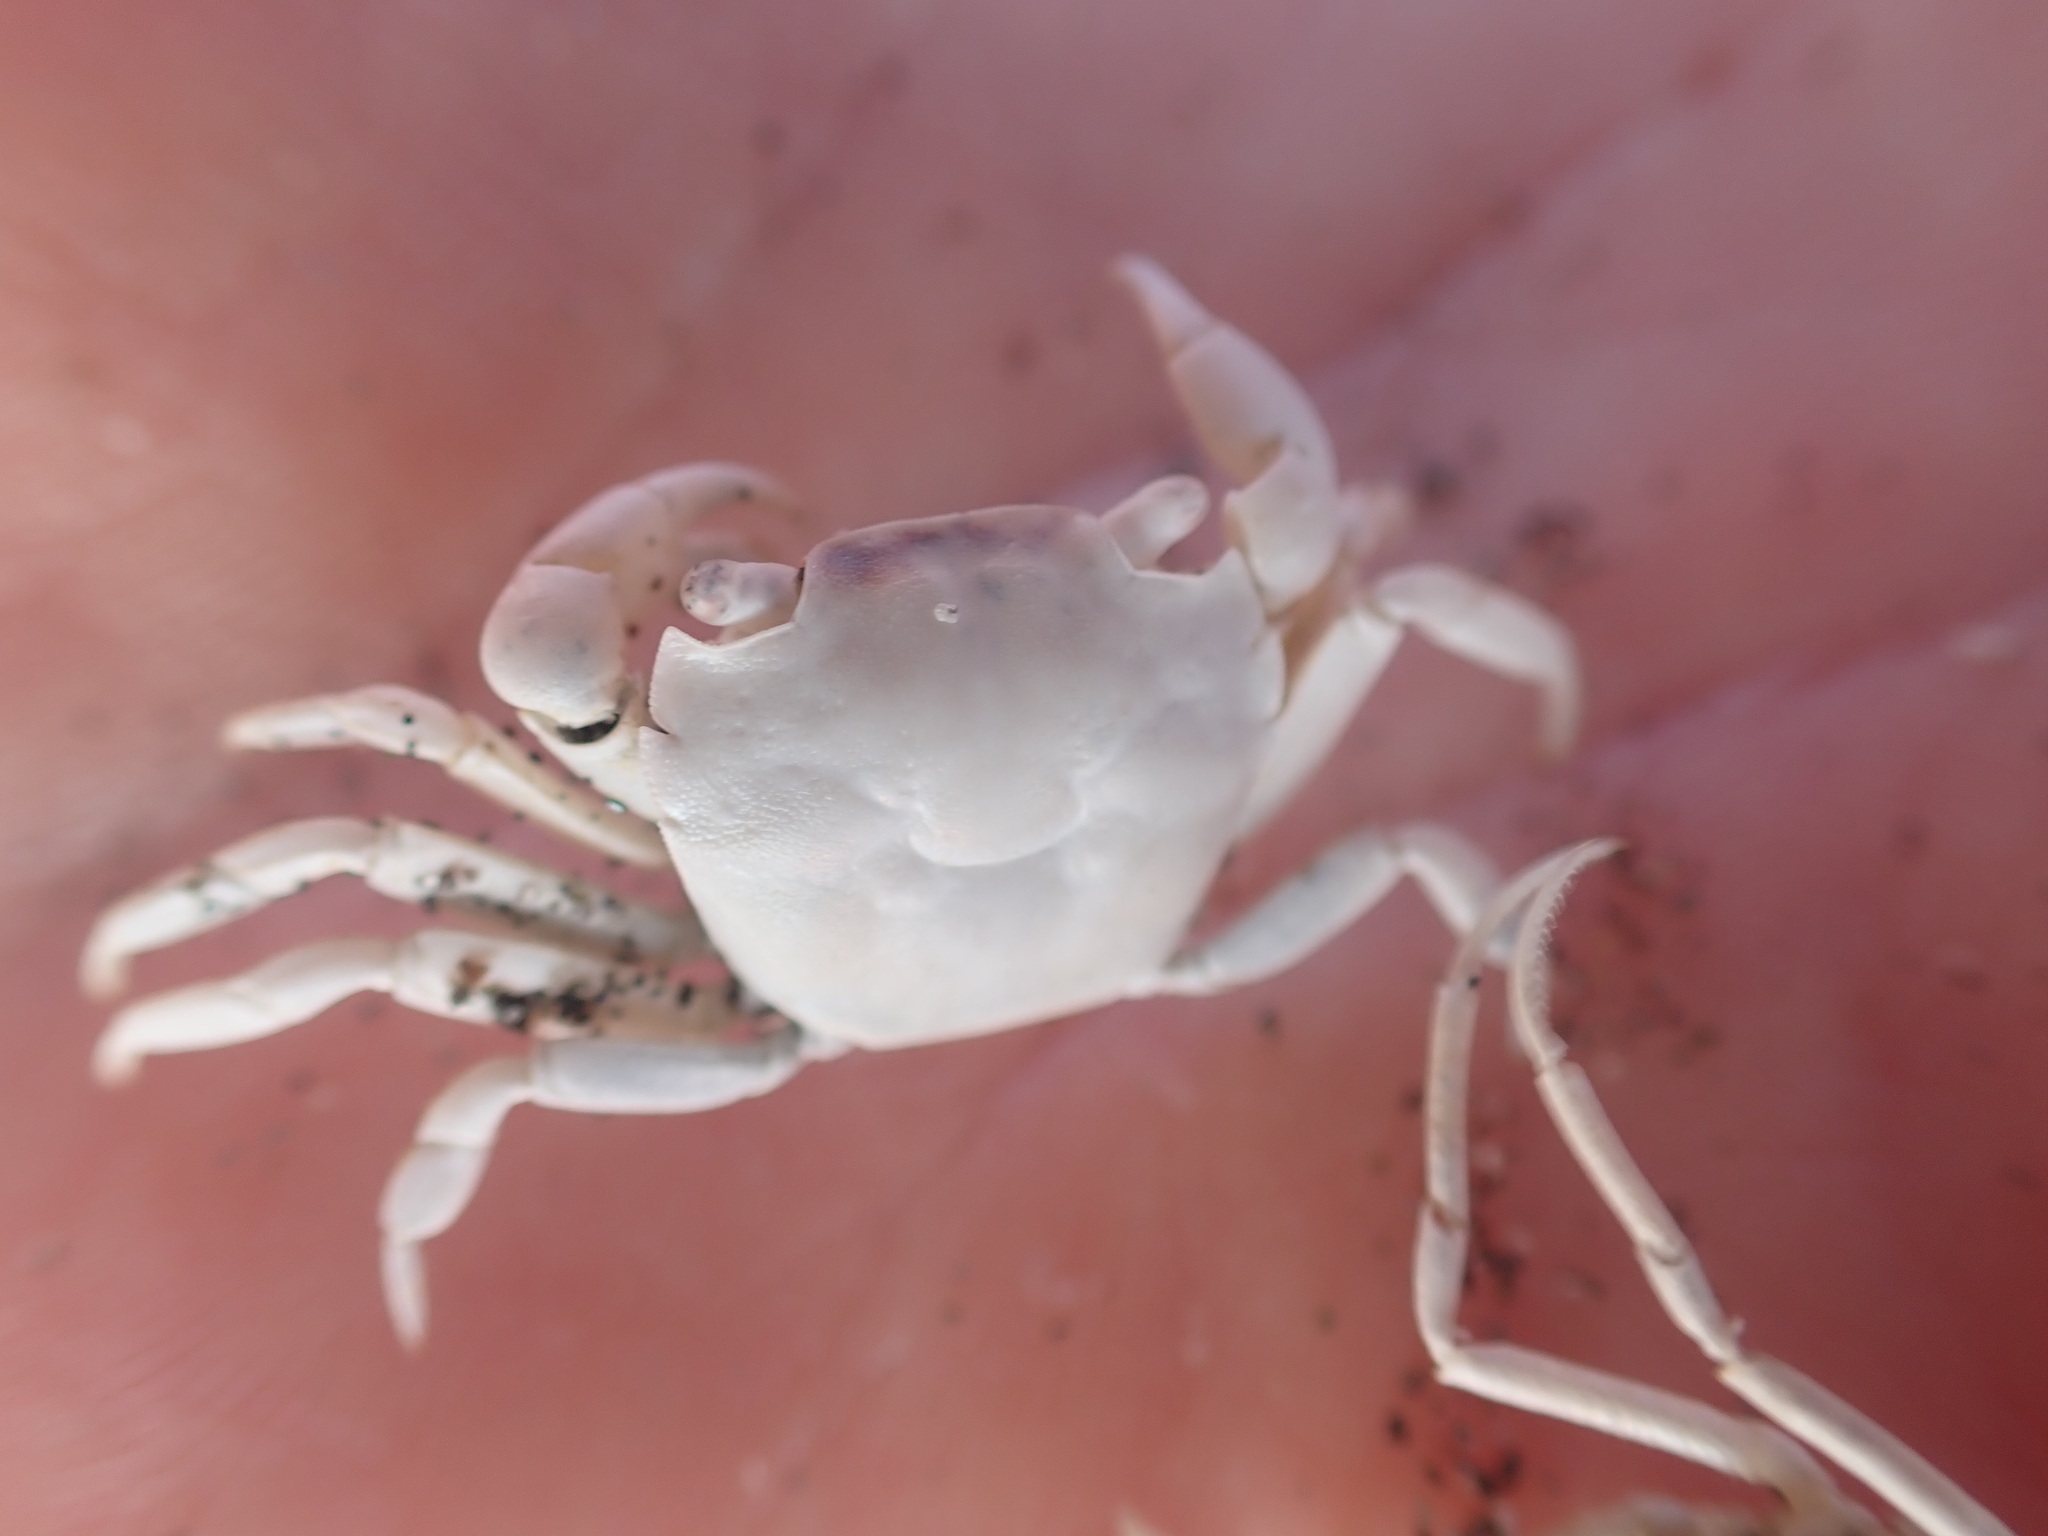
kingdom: Animalia
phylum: Arthropoda
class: Malacostraca
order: Decapoda
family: Varunidae
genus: Hemigrapsus
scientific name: Hemigrapsus crenulatus
